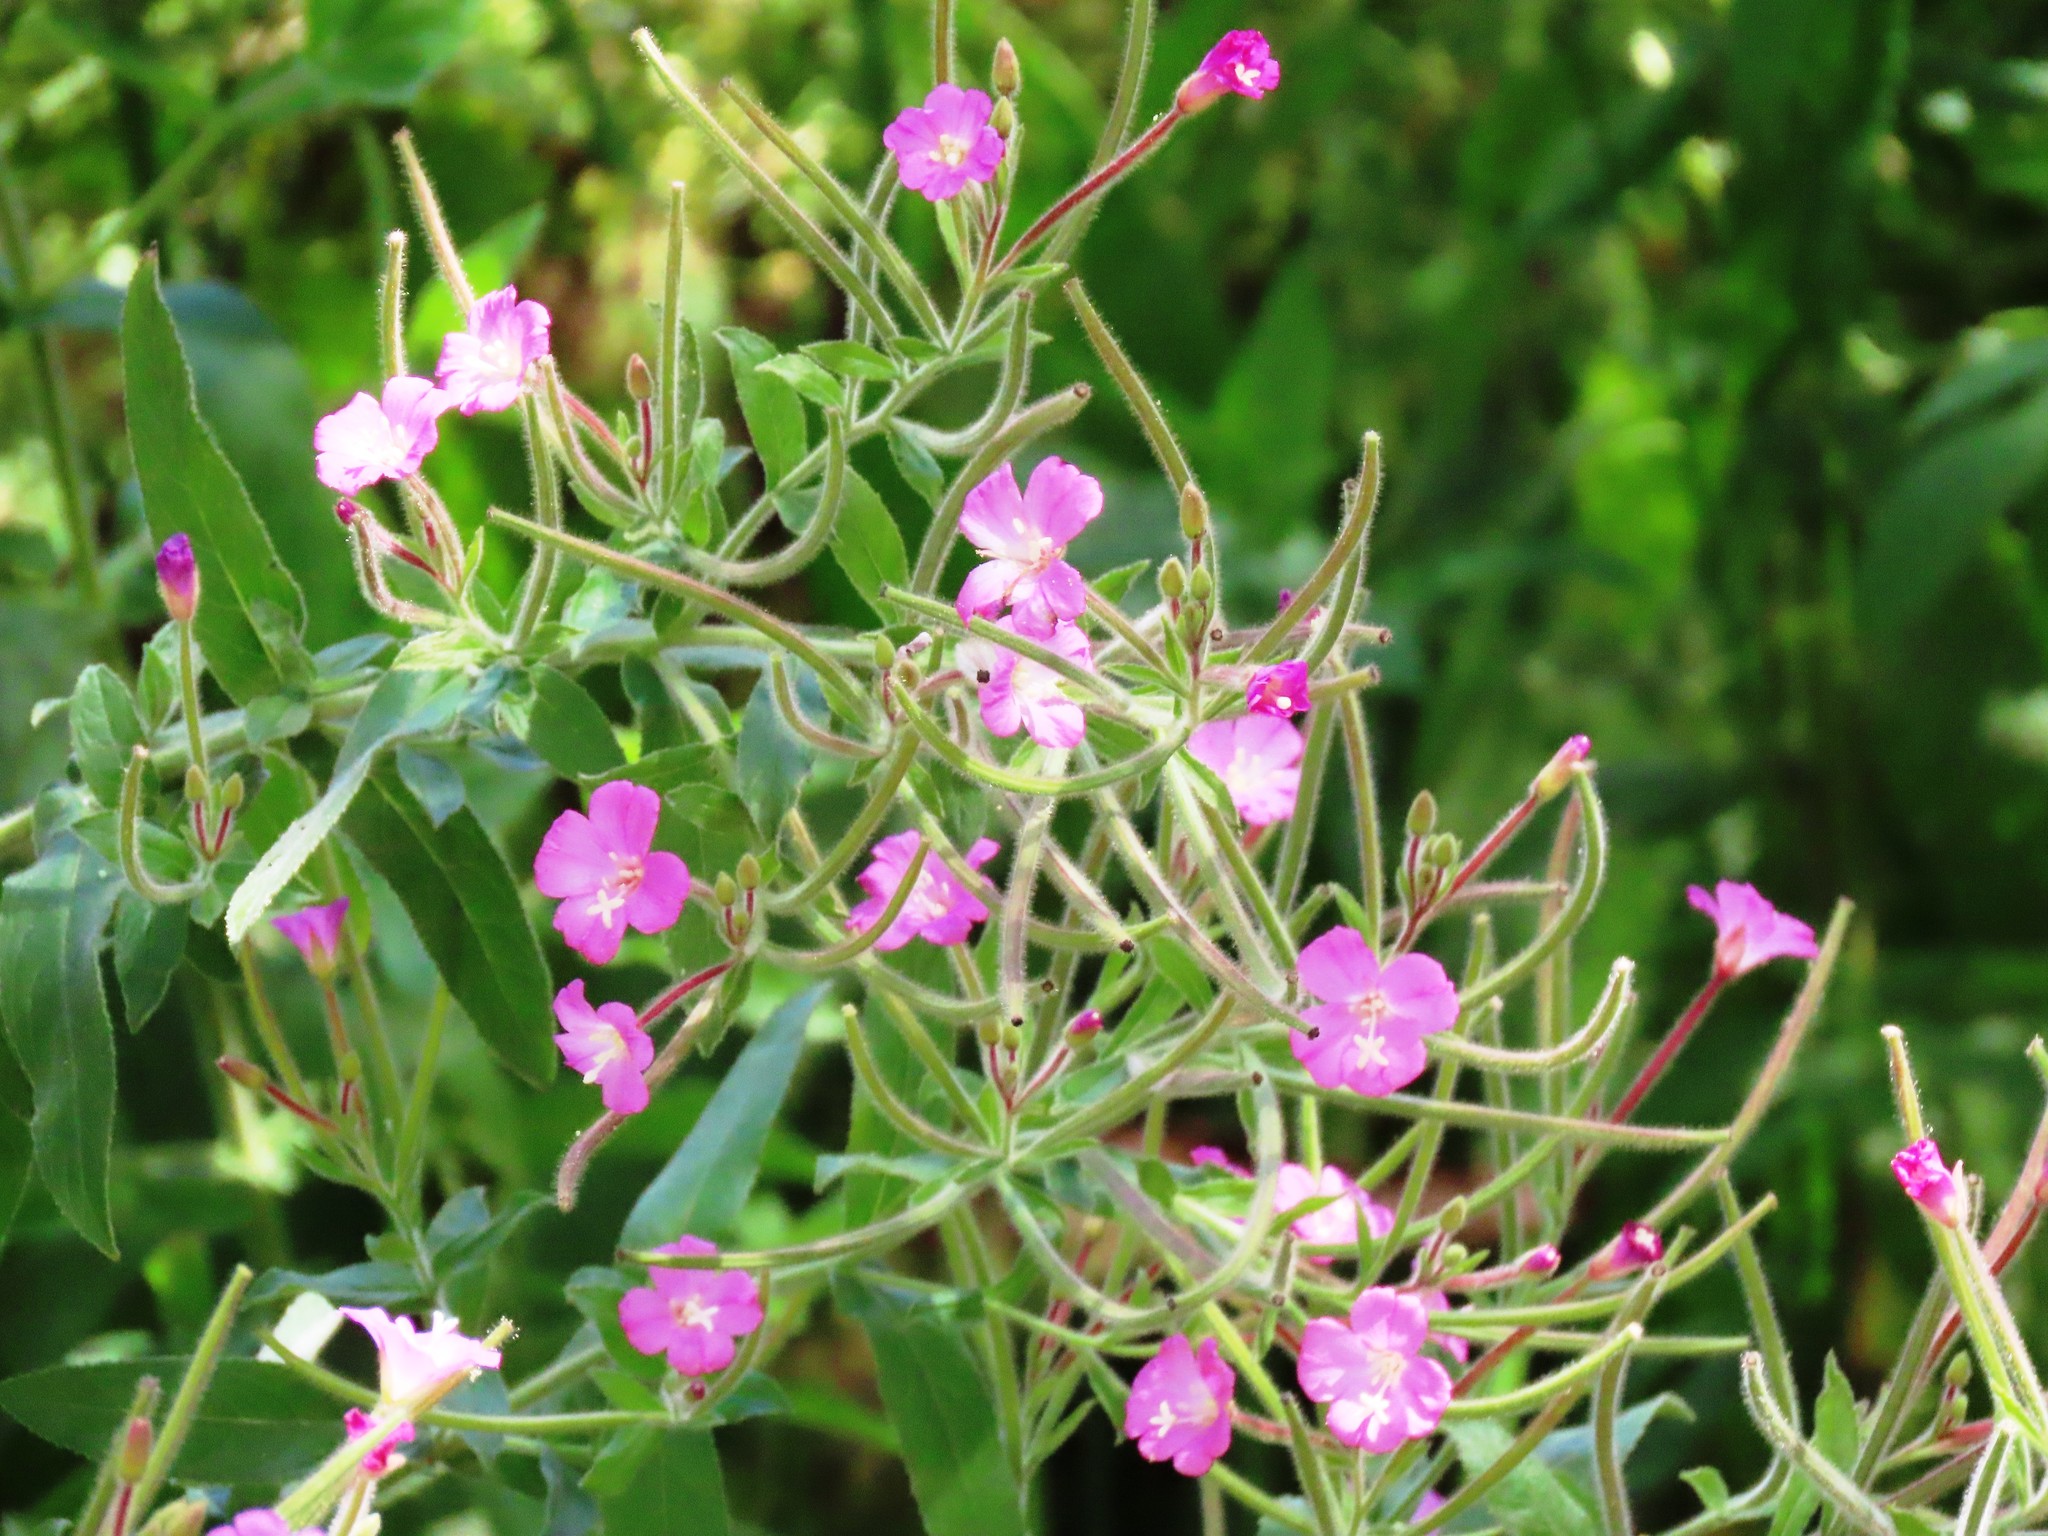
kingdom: Plantae
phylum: Tracheophyta
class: Magnoliopsida
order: Myrtales
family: Onagraceae
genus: Epilobium
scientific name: Epilobium hirsutum
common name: Great willowherb
